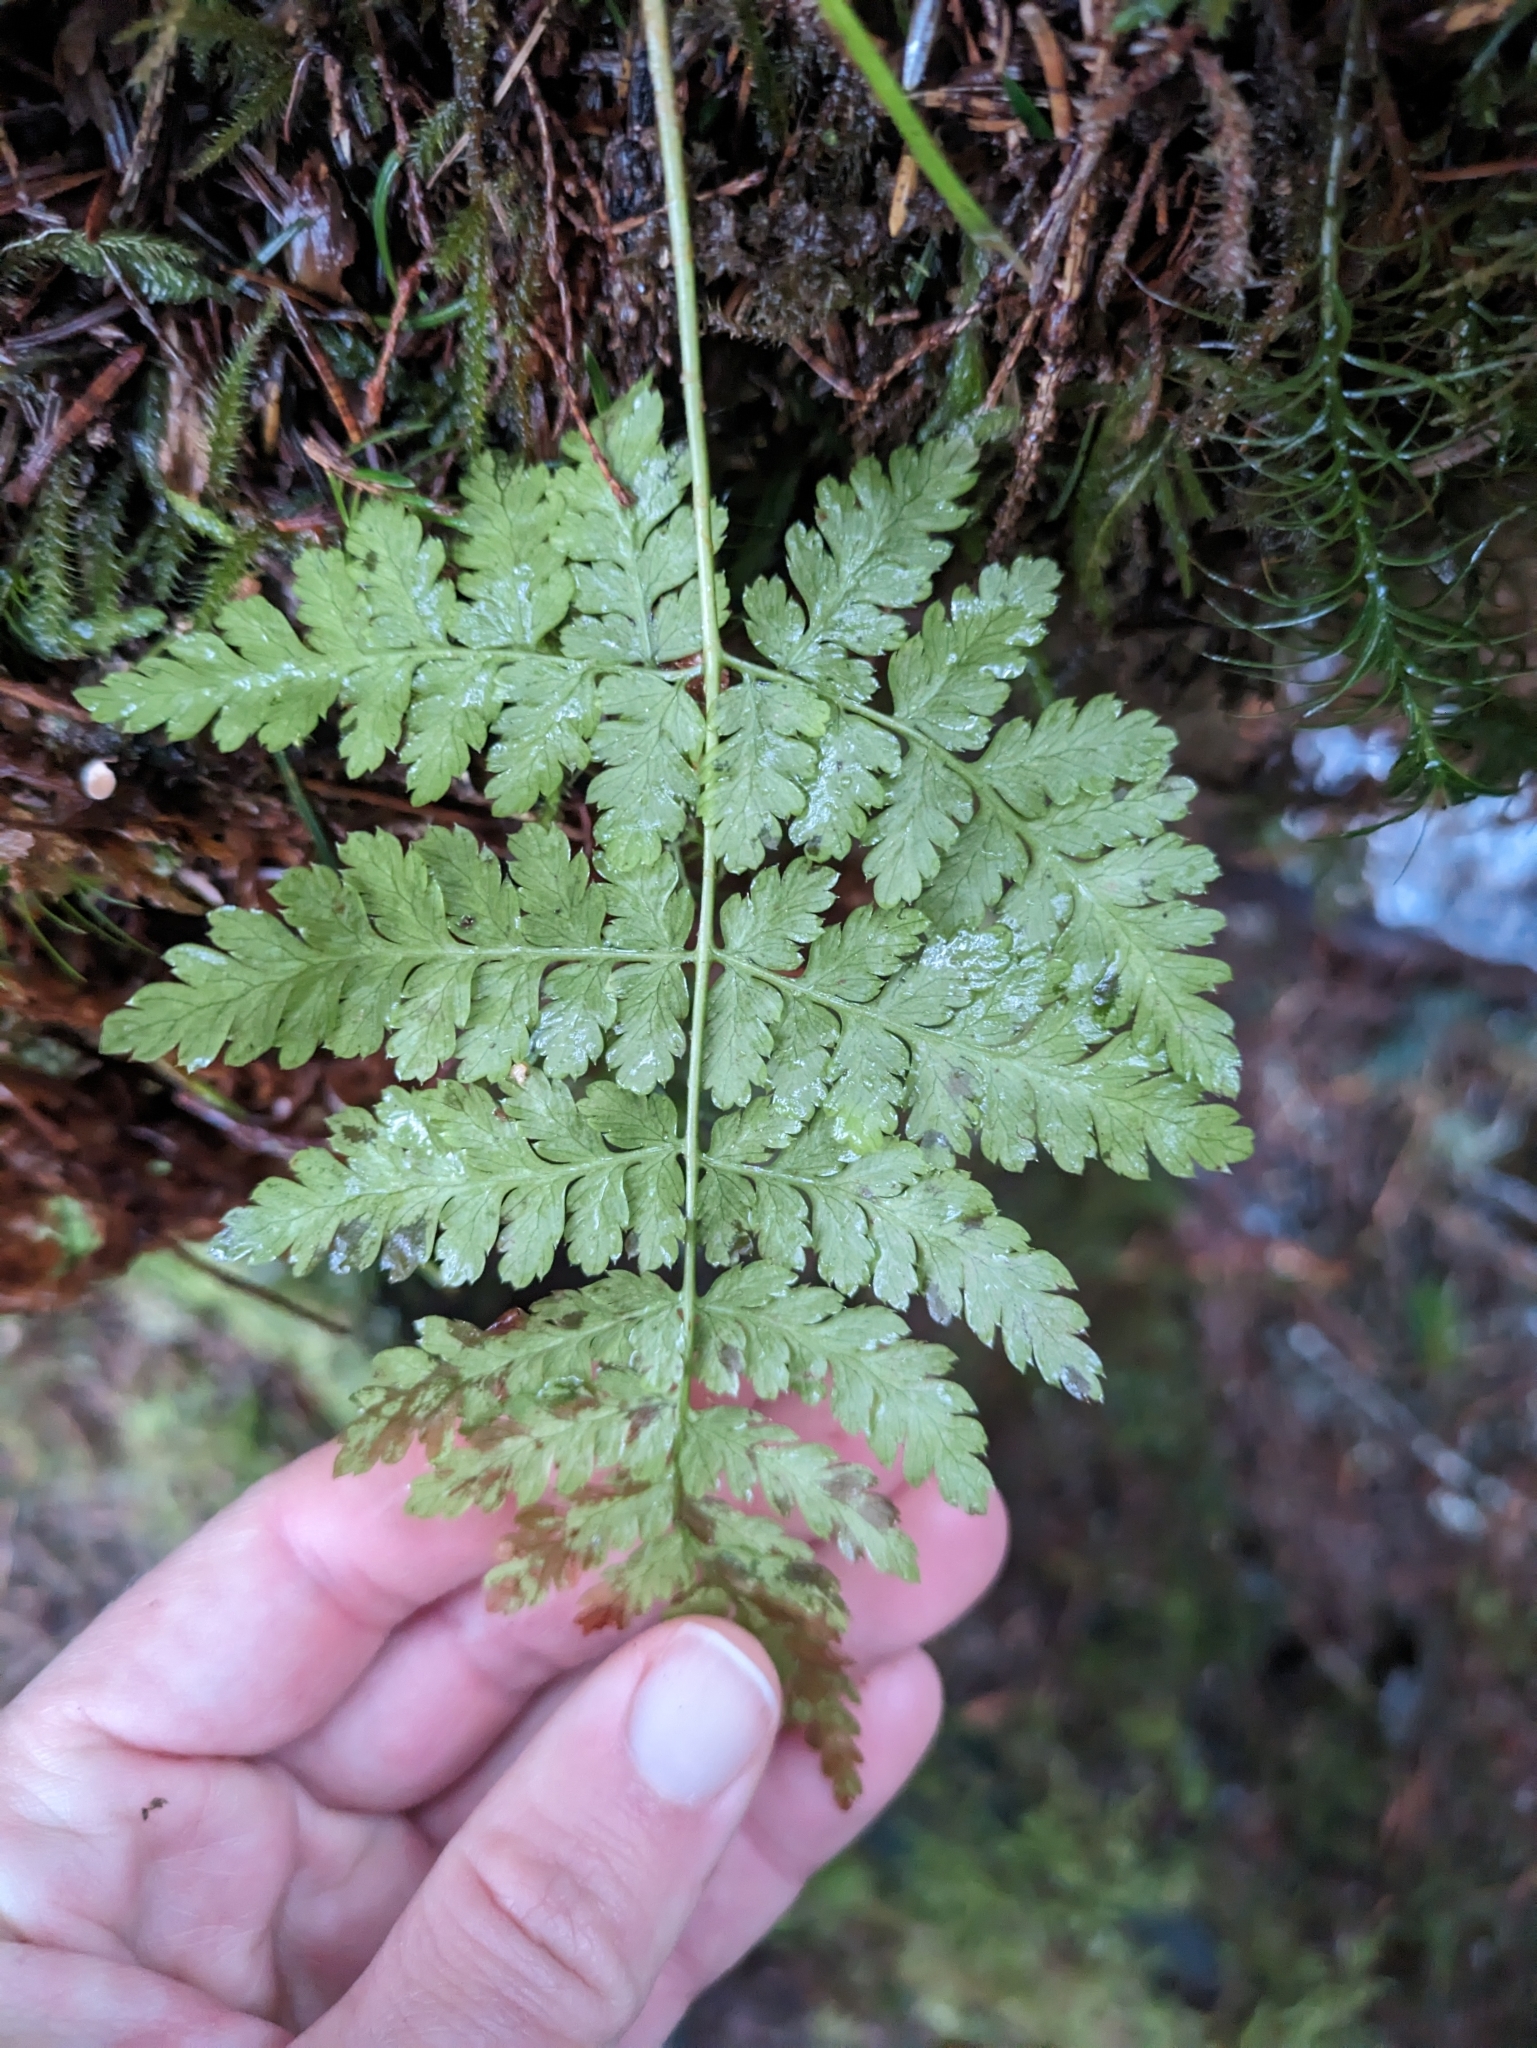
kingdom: Plantae
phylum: Tracheophyta
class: Polypodiopsida
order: Polypodiales
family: Dryopteridaceae
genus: Dryopteris
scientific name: Dryopteris expansa
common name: Northern buckler fern
